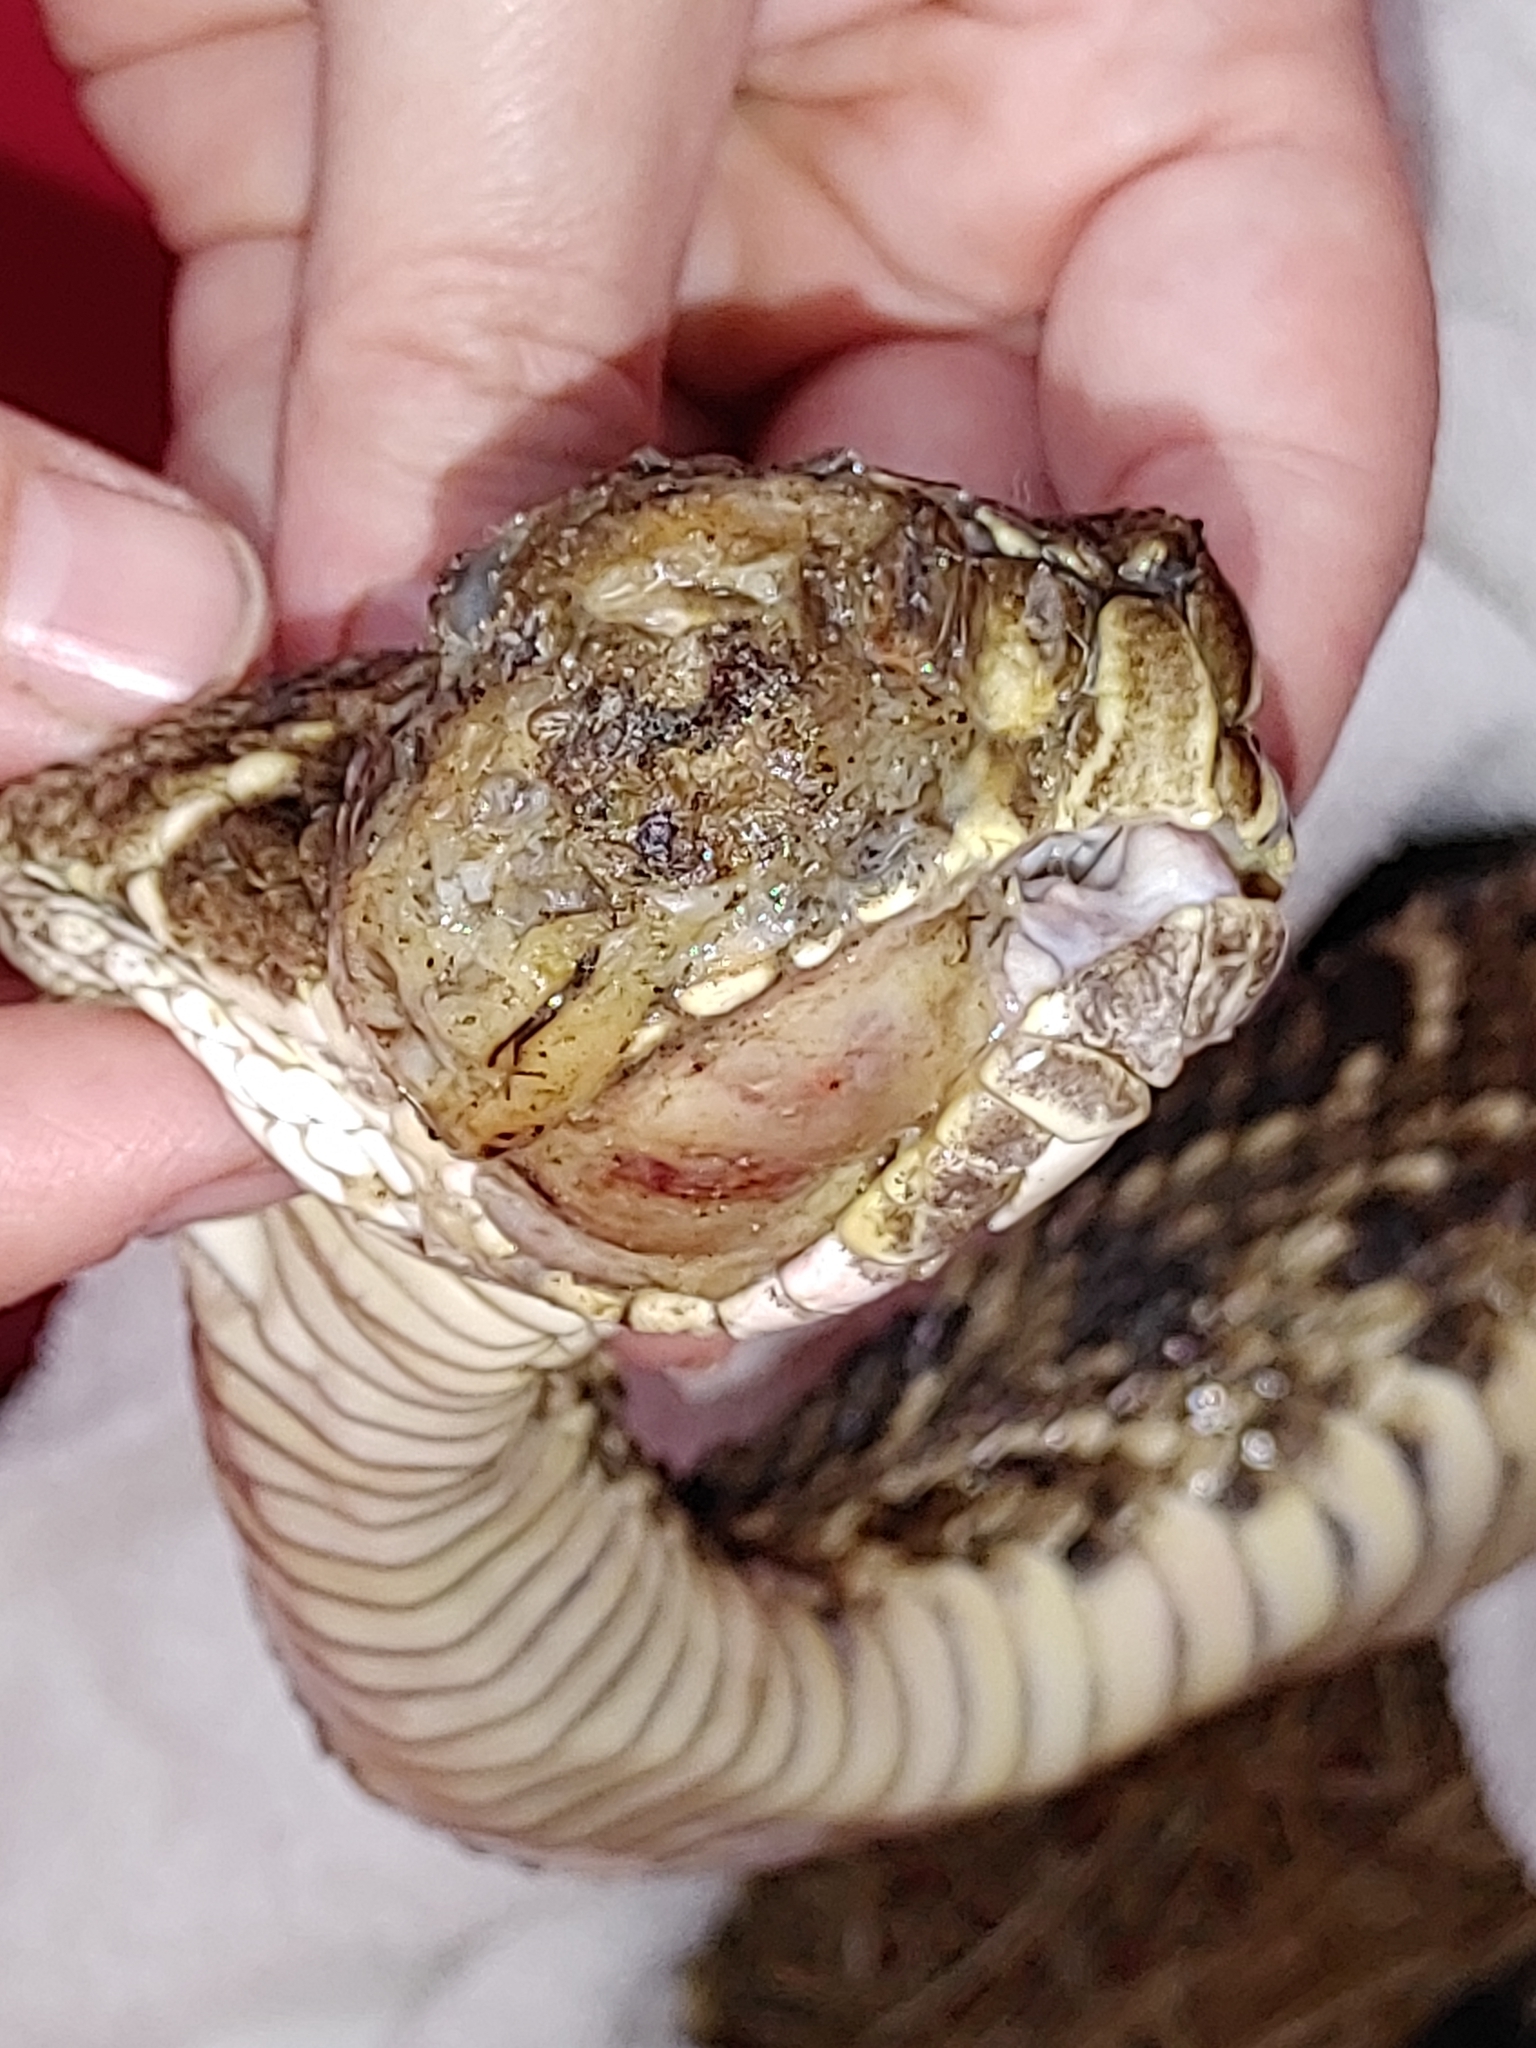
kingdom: Animalia
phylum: Chordata
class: Squamata
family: Viperidae
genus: Crotalus
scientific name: Crotalus adamanteus
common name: Eastern diamondback rattlesnake
